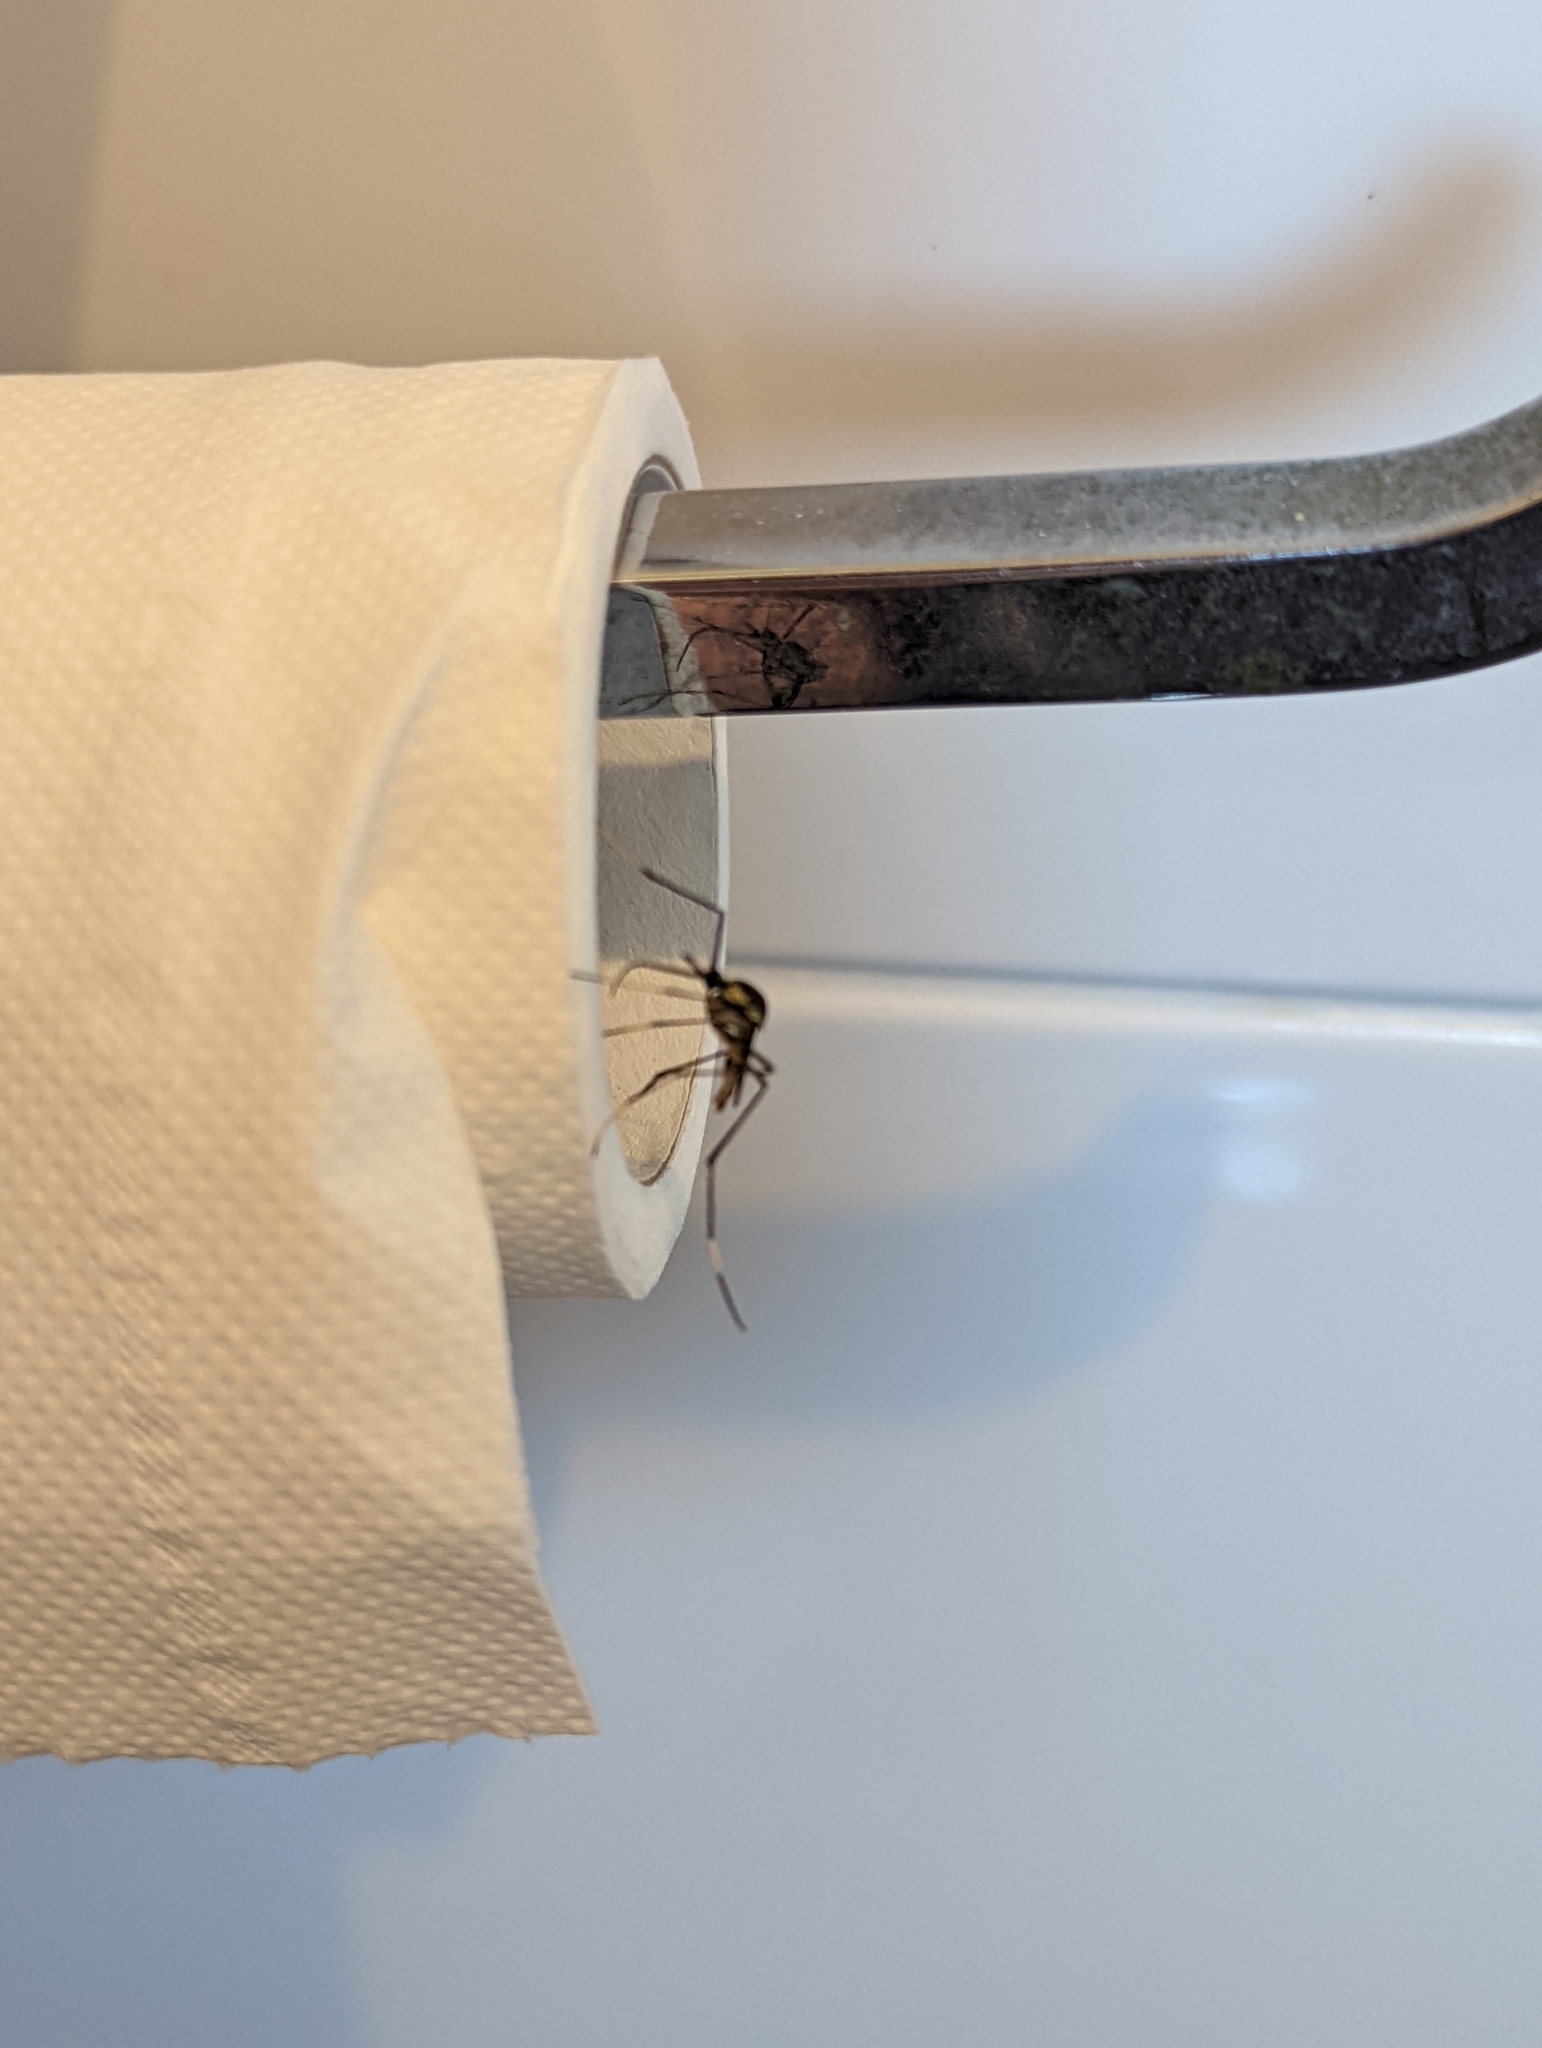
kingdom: Animalia
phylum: Arthropoda
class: Insecta
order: Diptera
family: Culicidae
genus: Toxorhynchites
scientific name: Toxorhynchites speciosus
